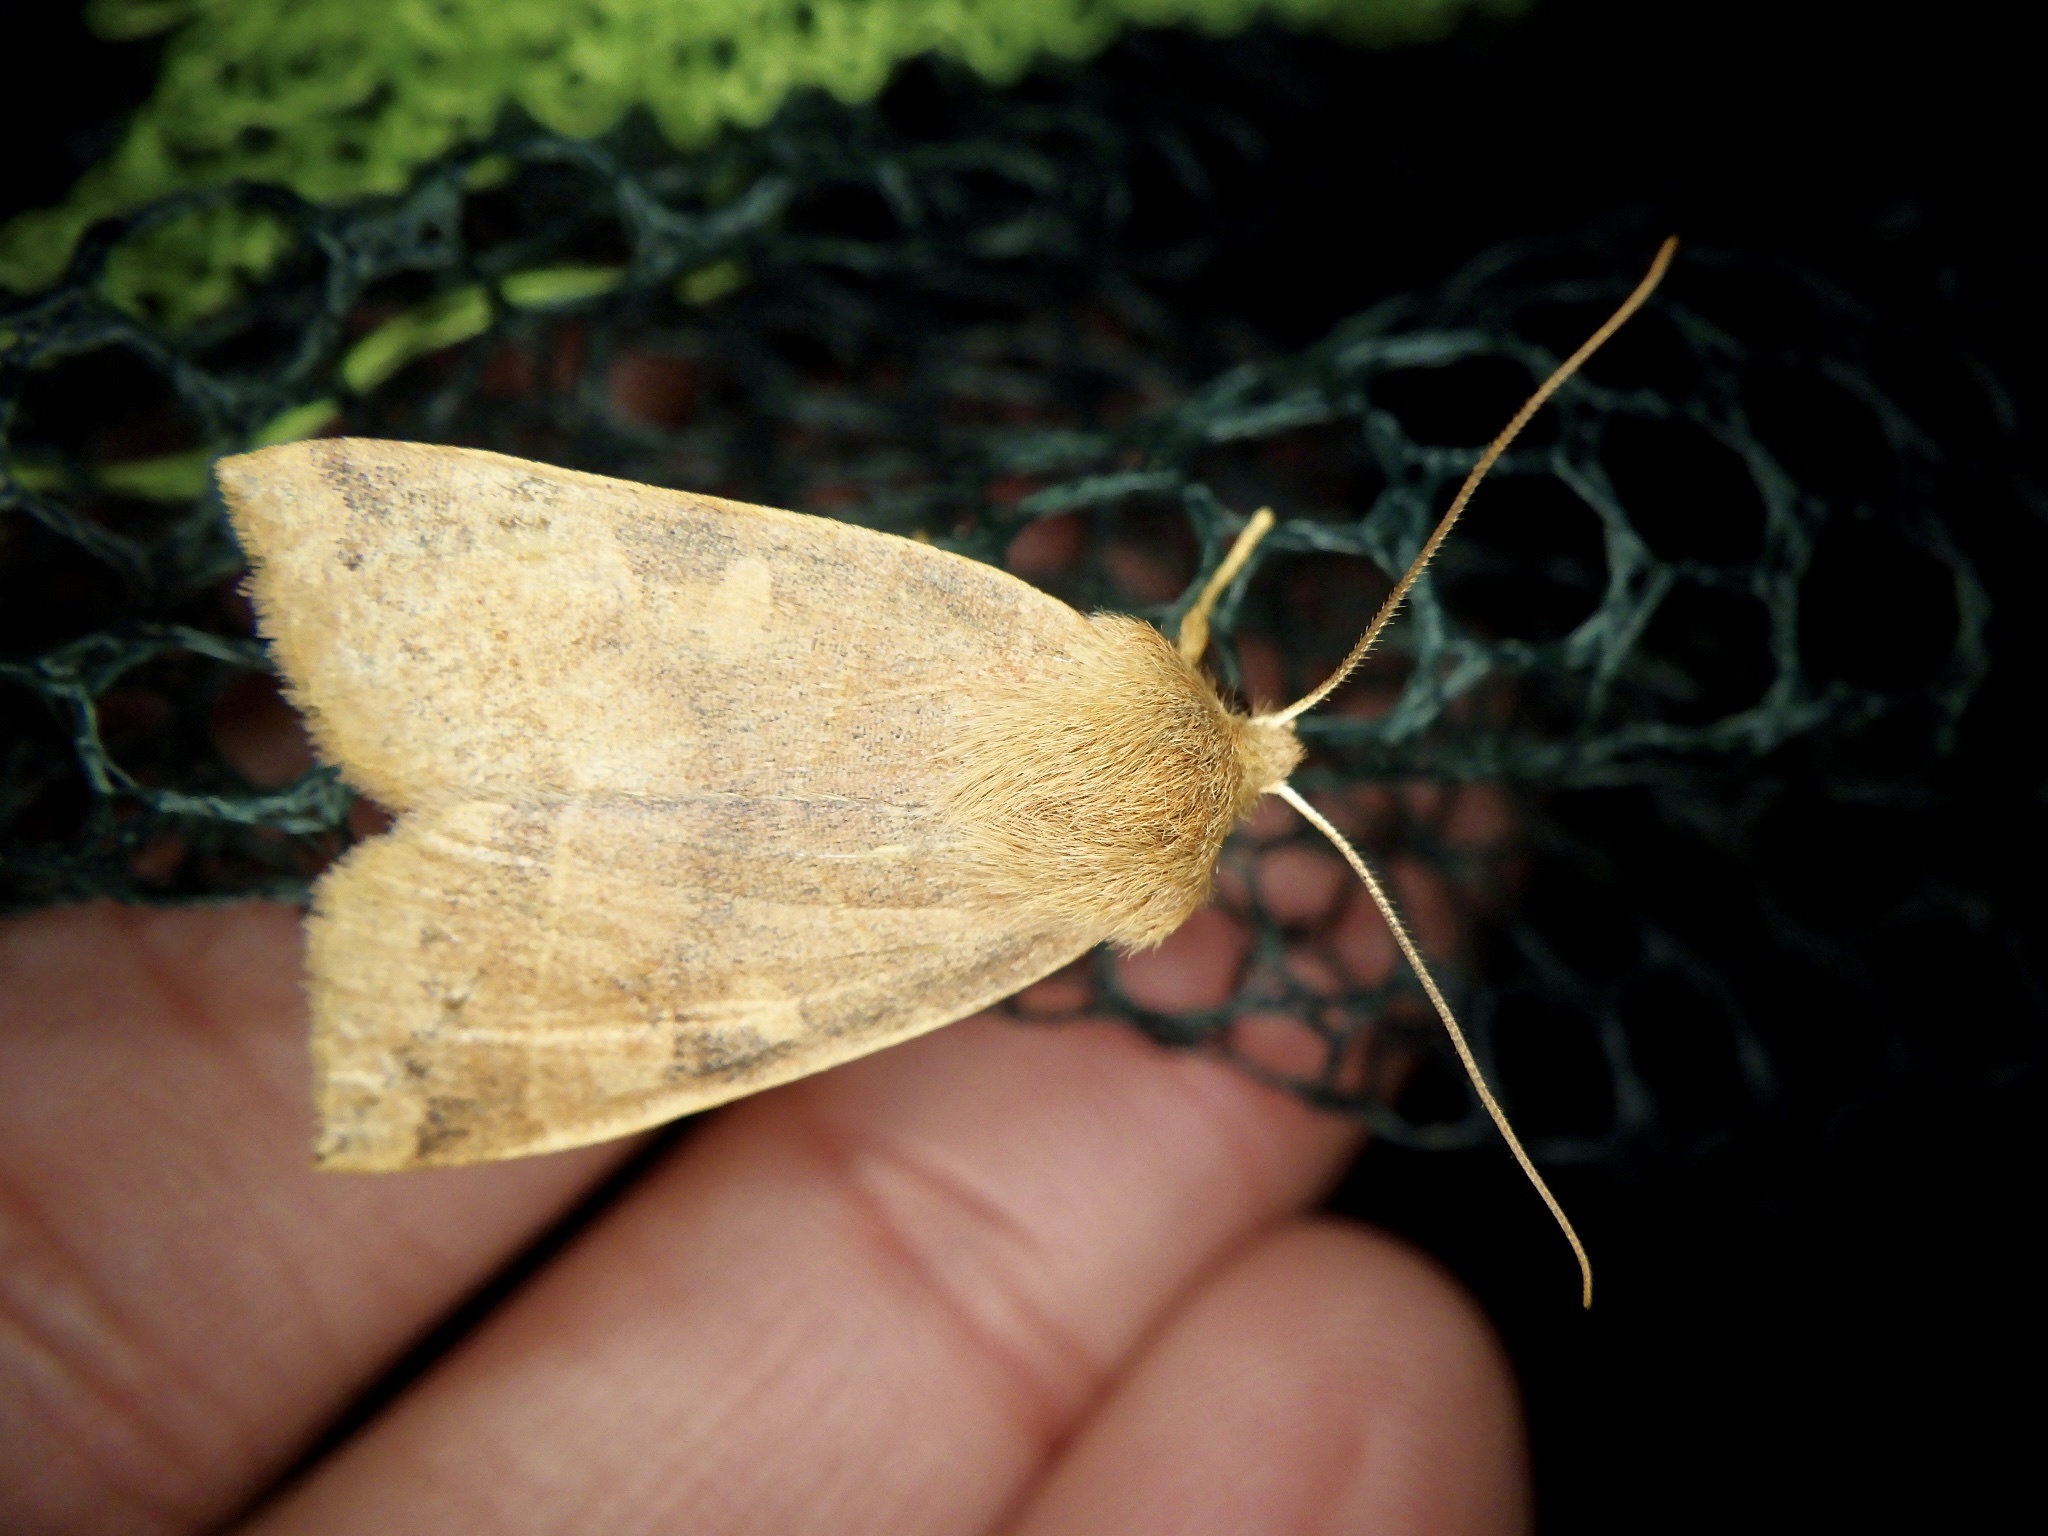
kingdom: Animalia
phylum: Arthropoda
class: Insecta
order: Lepidoptera
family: Noctuidae
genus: Telorta
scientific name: Telorta edentata
